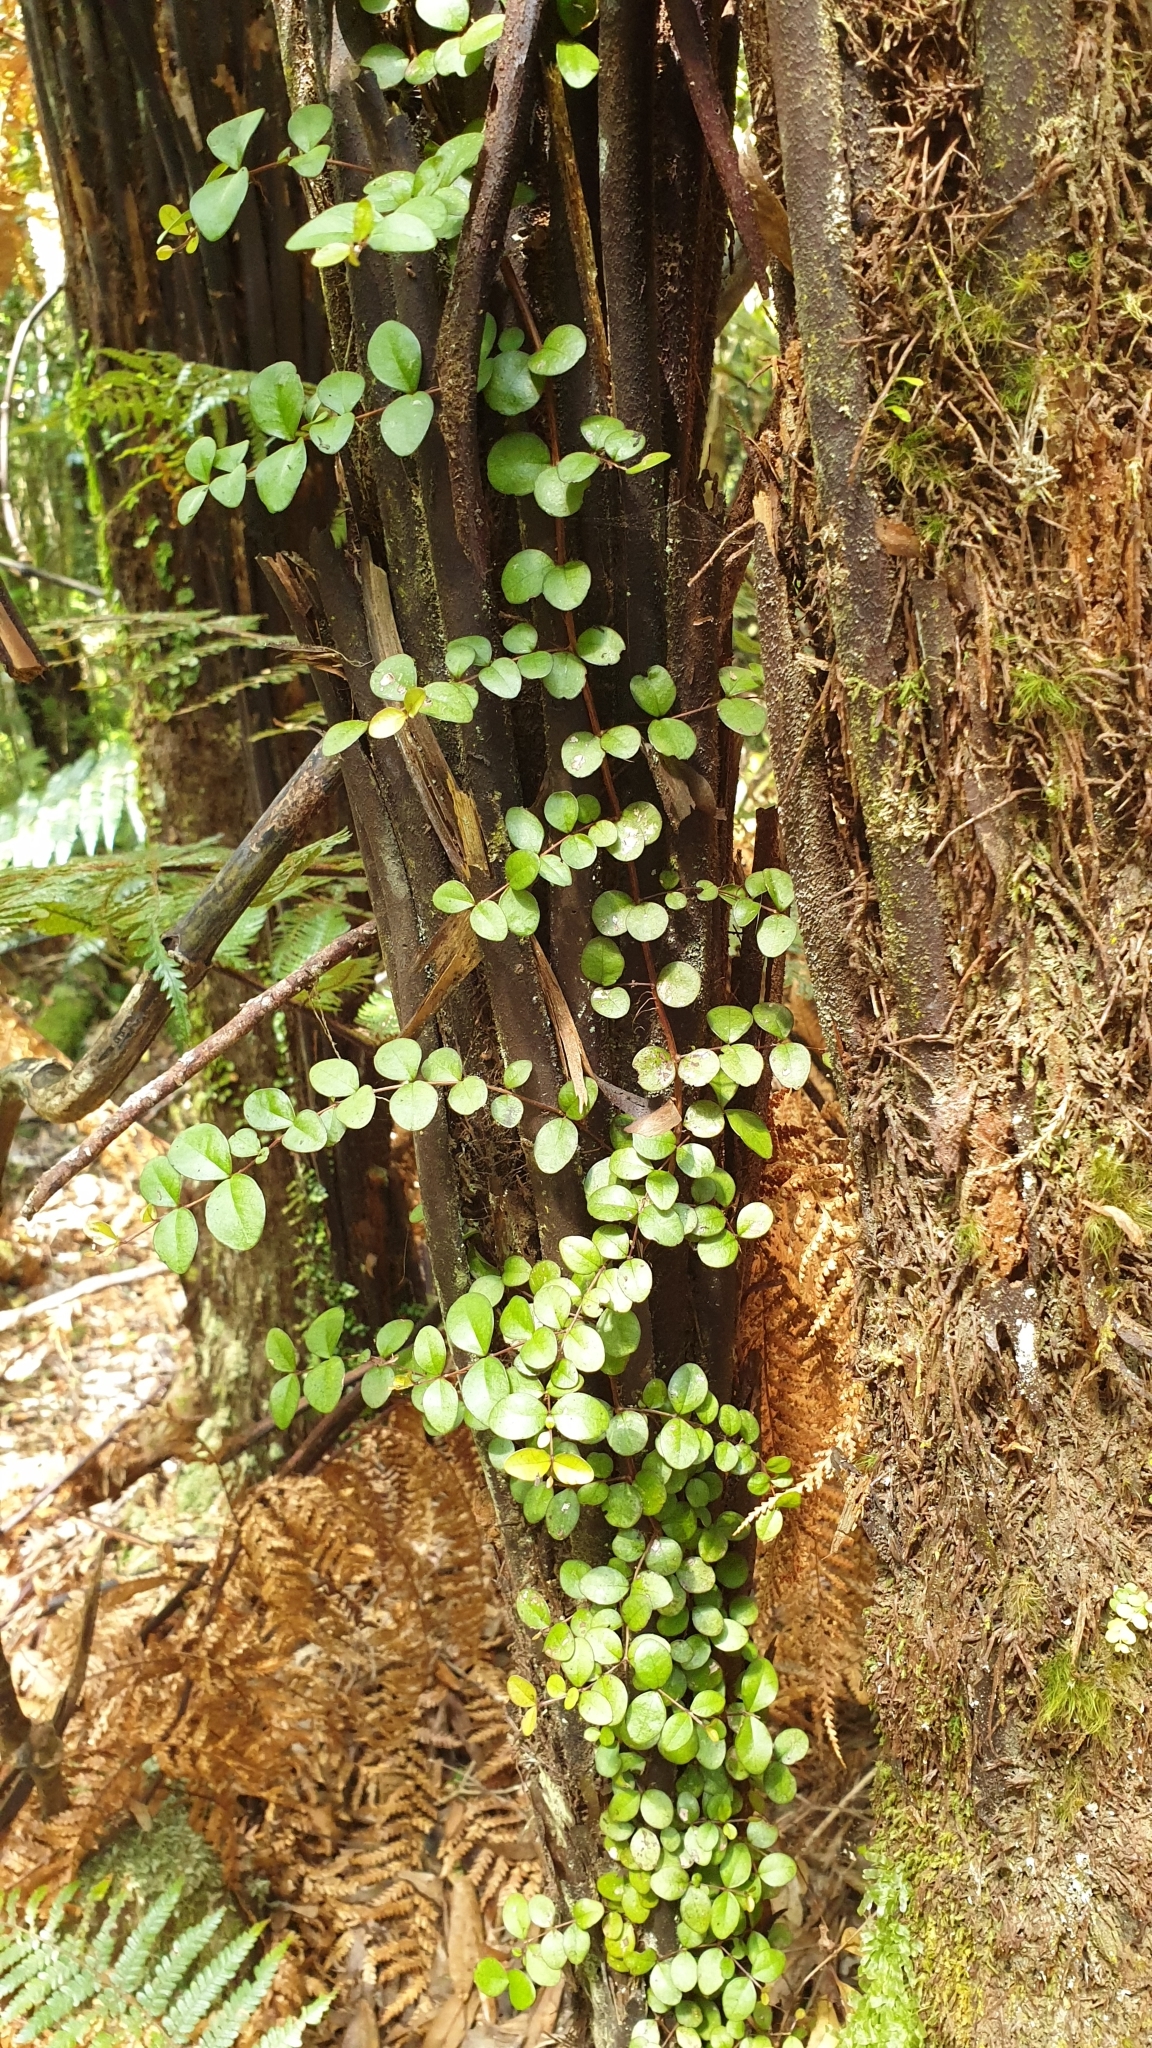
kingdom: Plantae
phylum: Tracheophyta
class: Magnoliopsida
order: Myrtales
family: Myrtaceae
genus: Metrosideros
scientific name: Metrosideros fulgens
